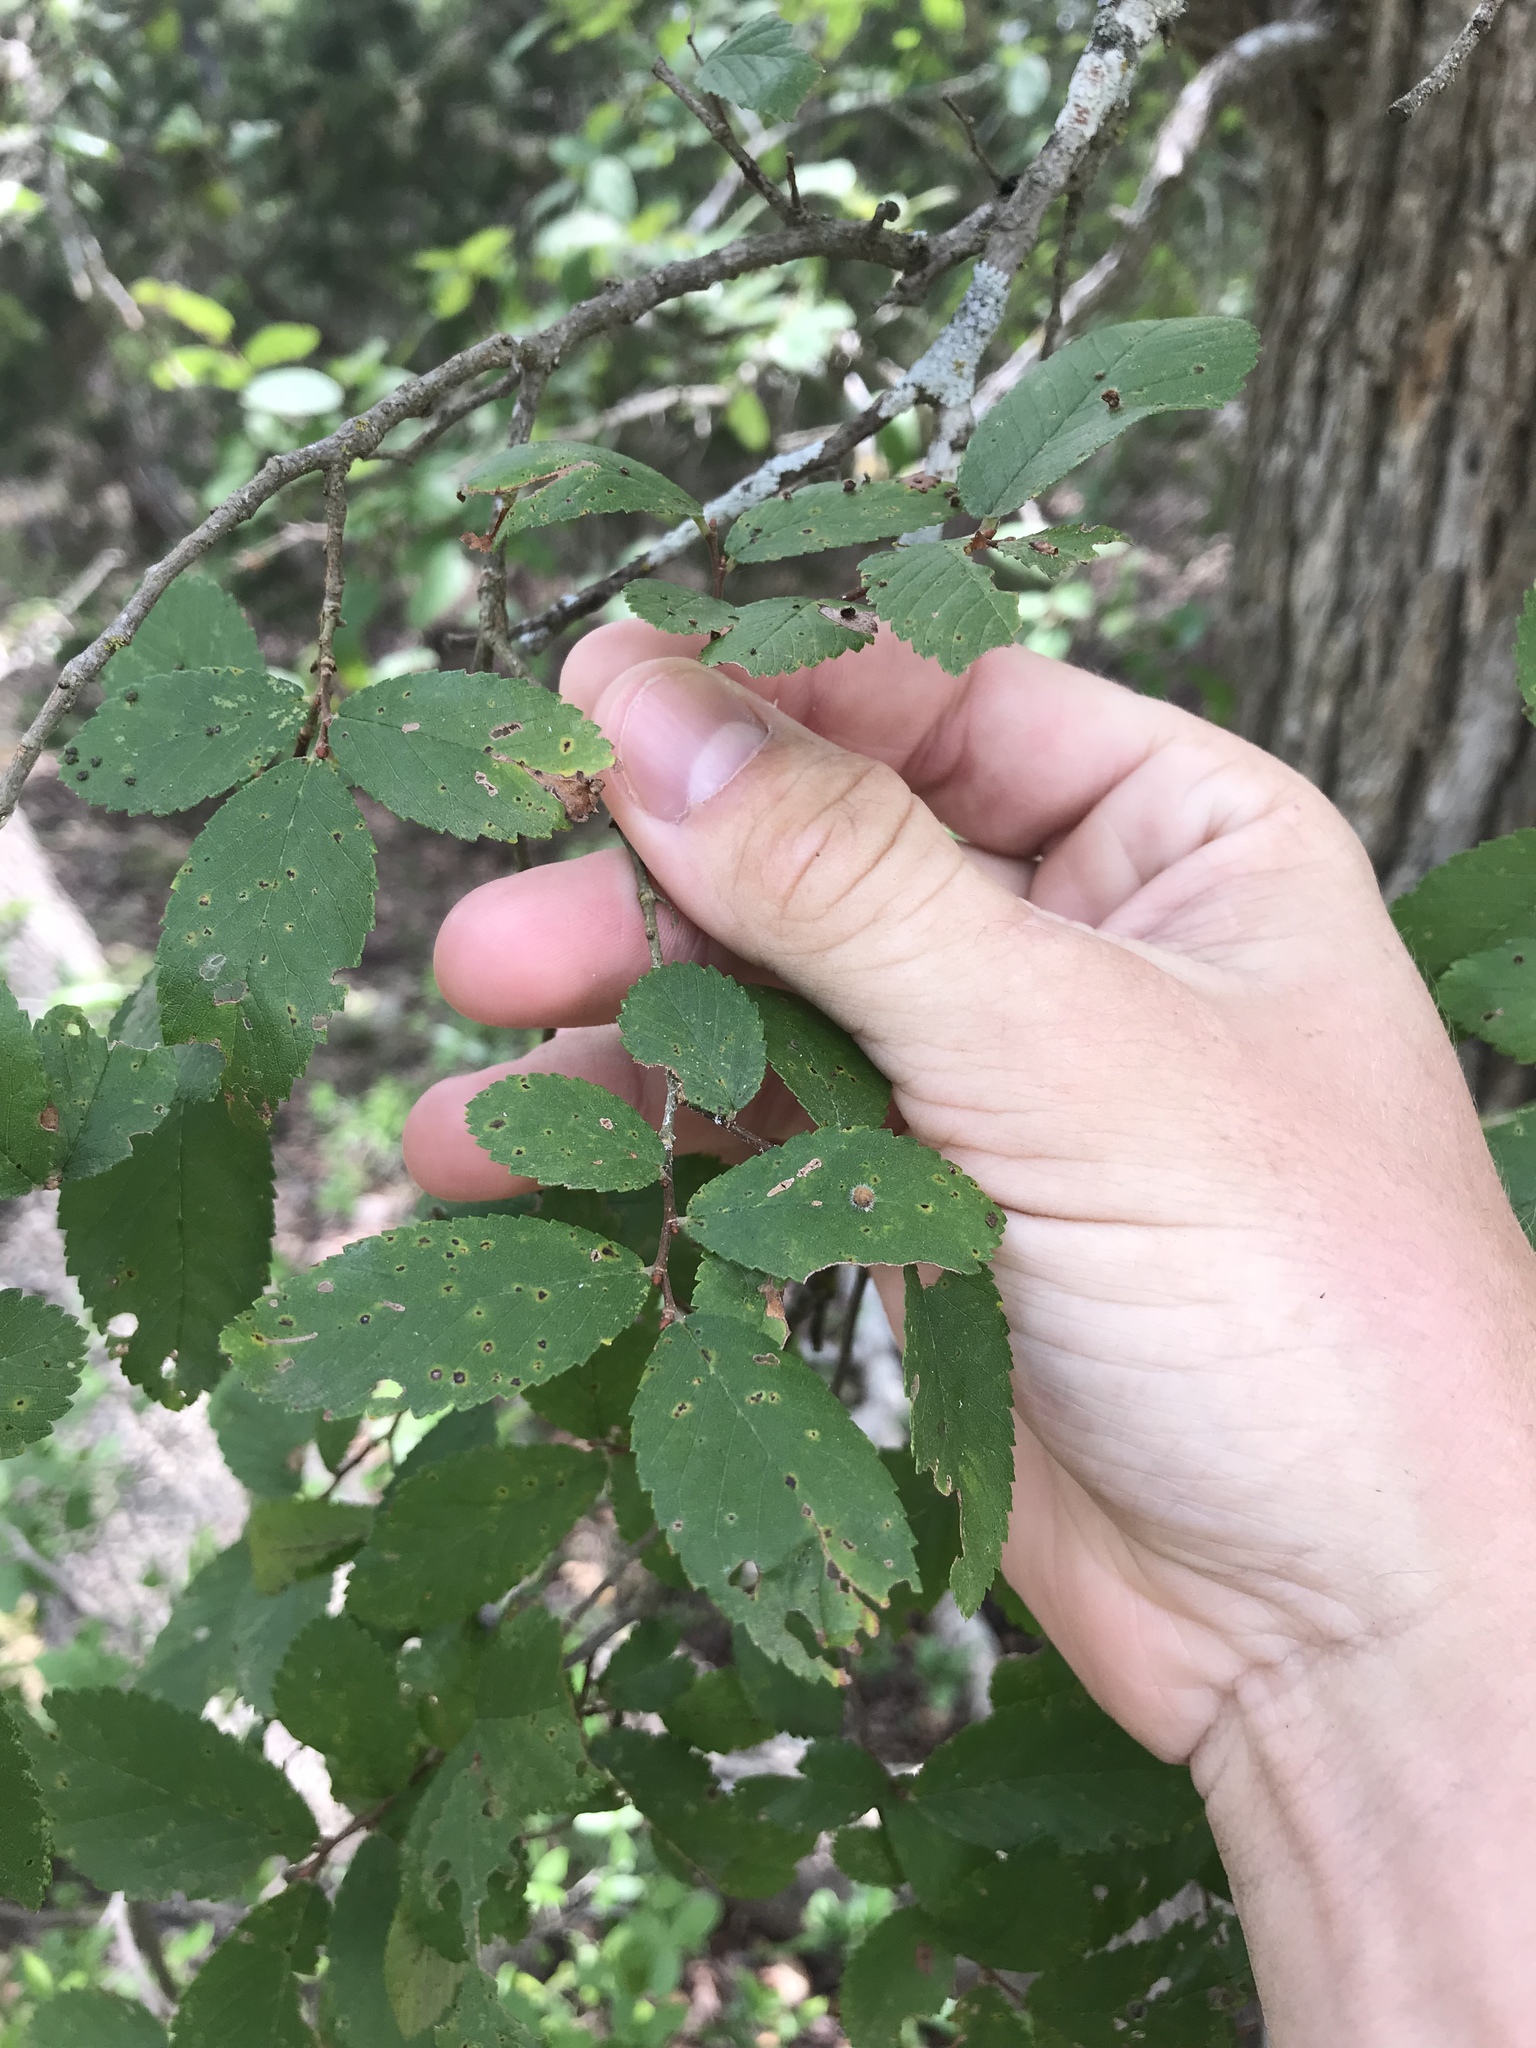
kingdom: Plantae
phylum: Tracheophyta
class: Magnoliopsida
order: Rosales
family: Ulmaceae
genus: Ulmus
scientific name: Ulmus crassifolia
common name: Basket elm
